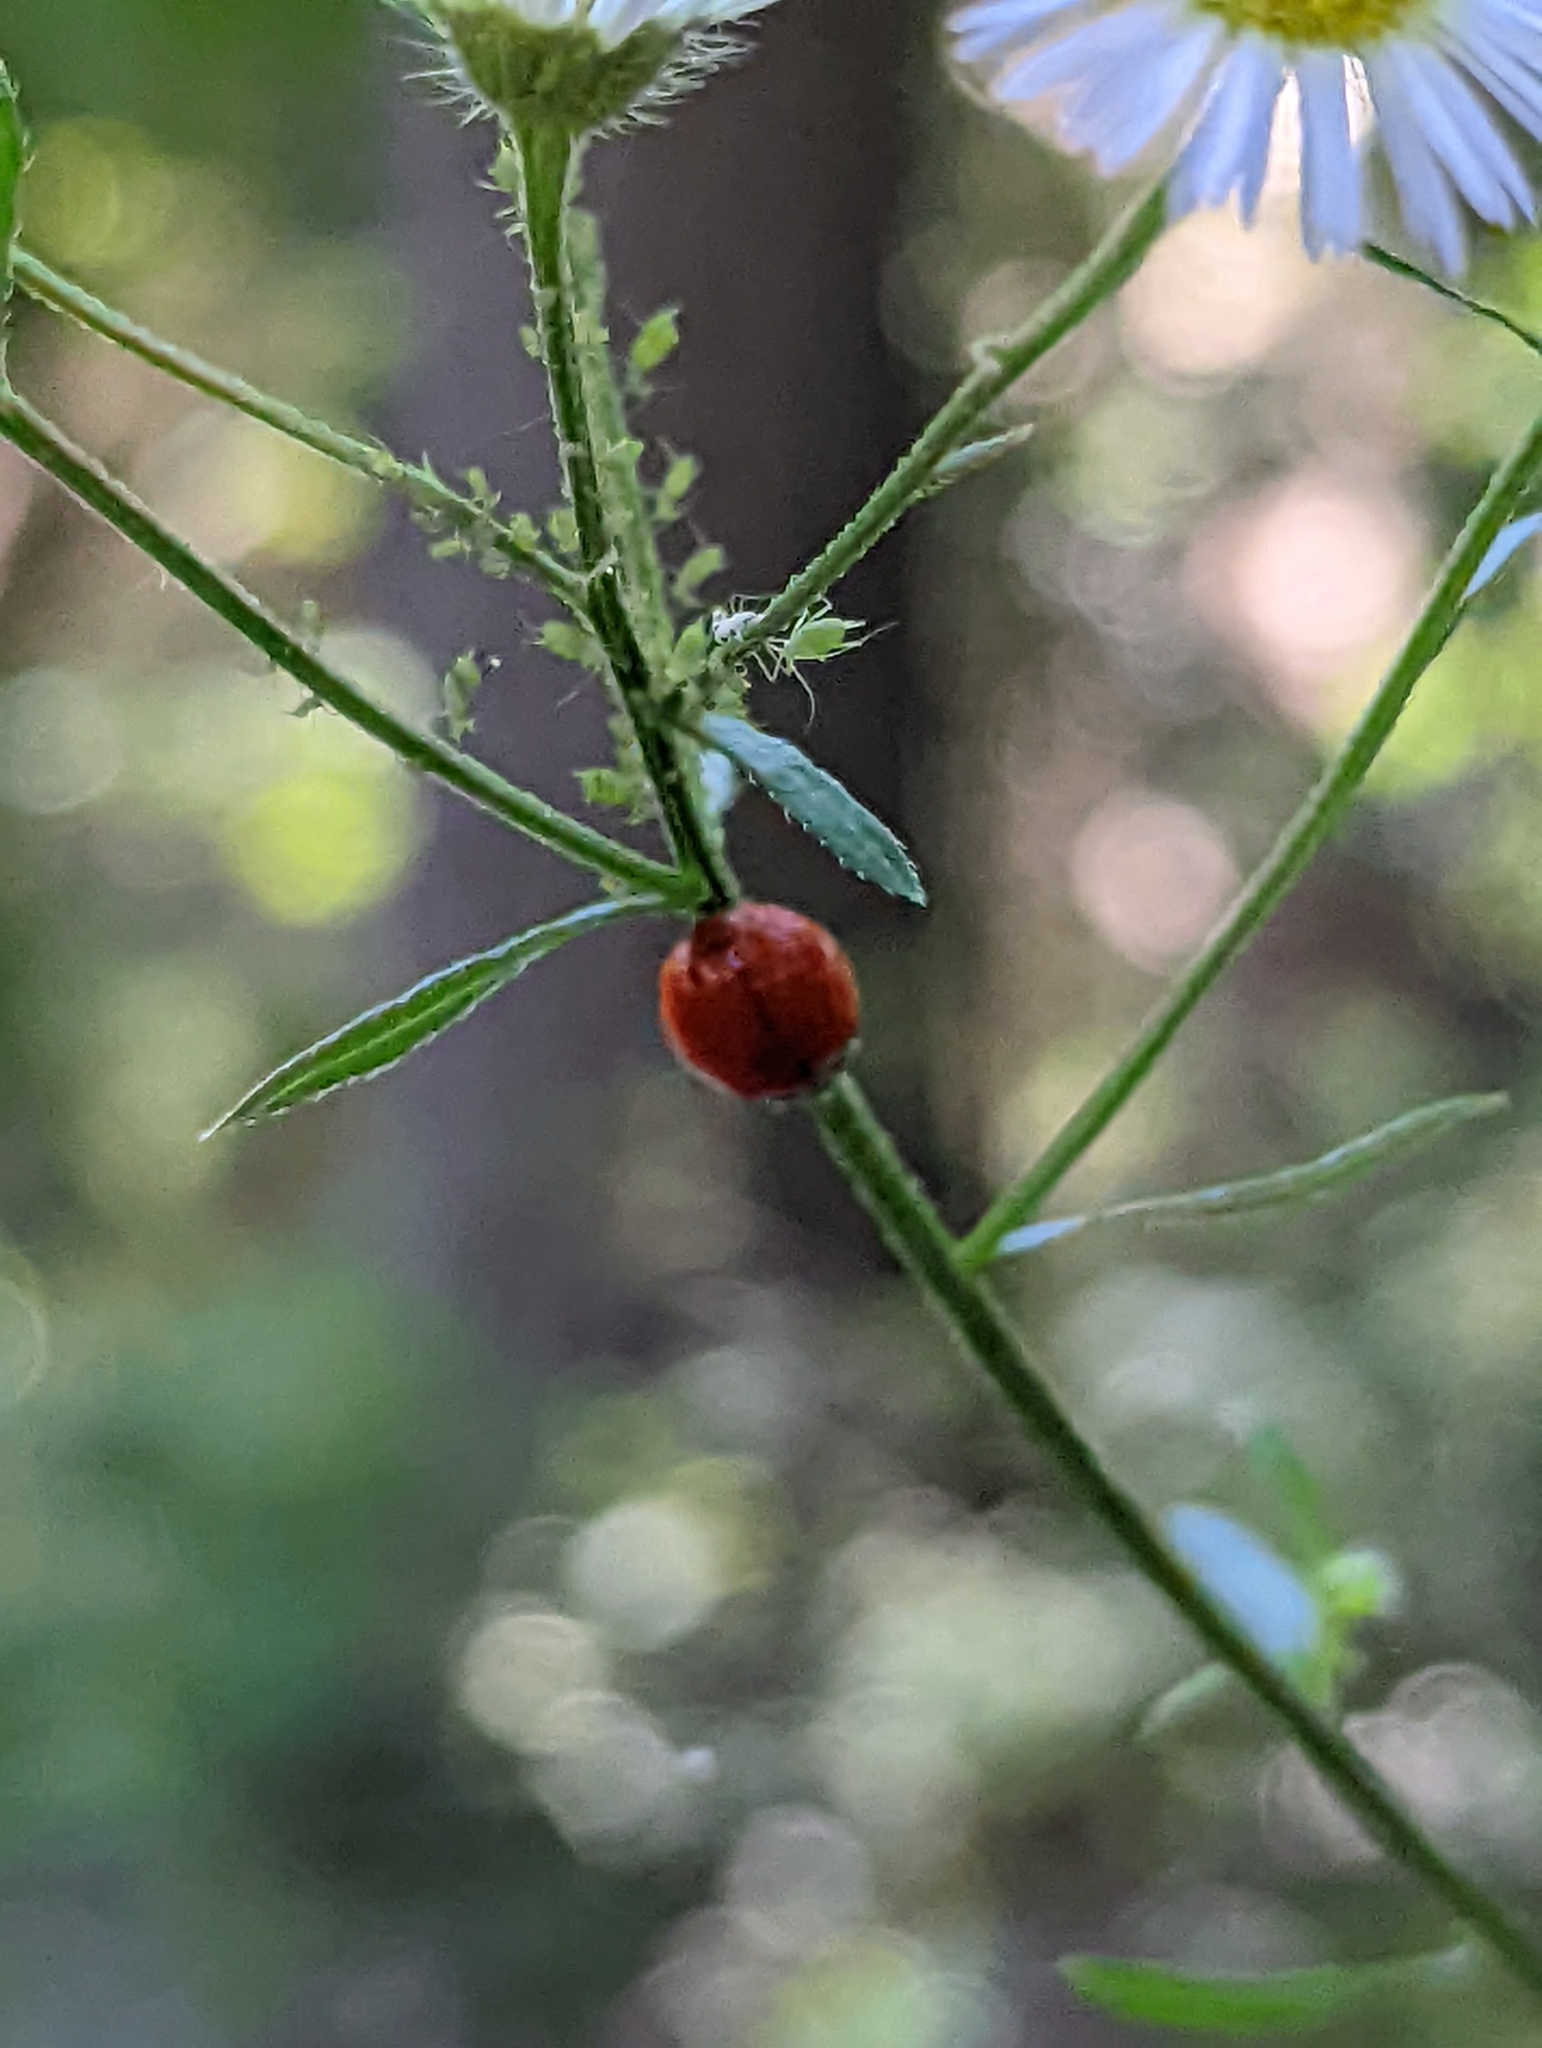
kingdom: Animalia
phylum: Arthropoda
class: Insecta
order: Coleoptera
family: Coccinellidae
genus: Harmonia
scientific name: Harmonia axyridis
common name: Harlequin ladybird
